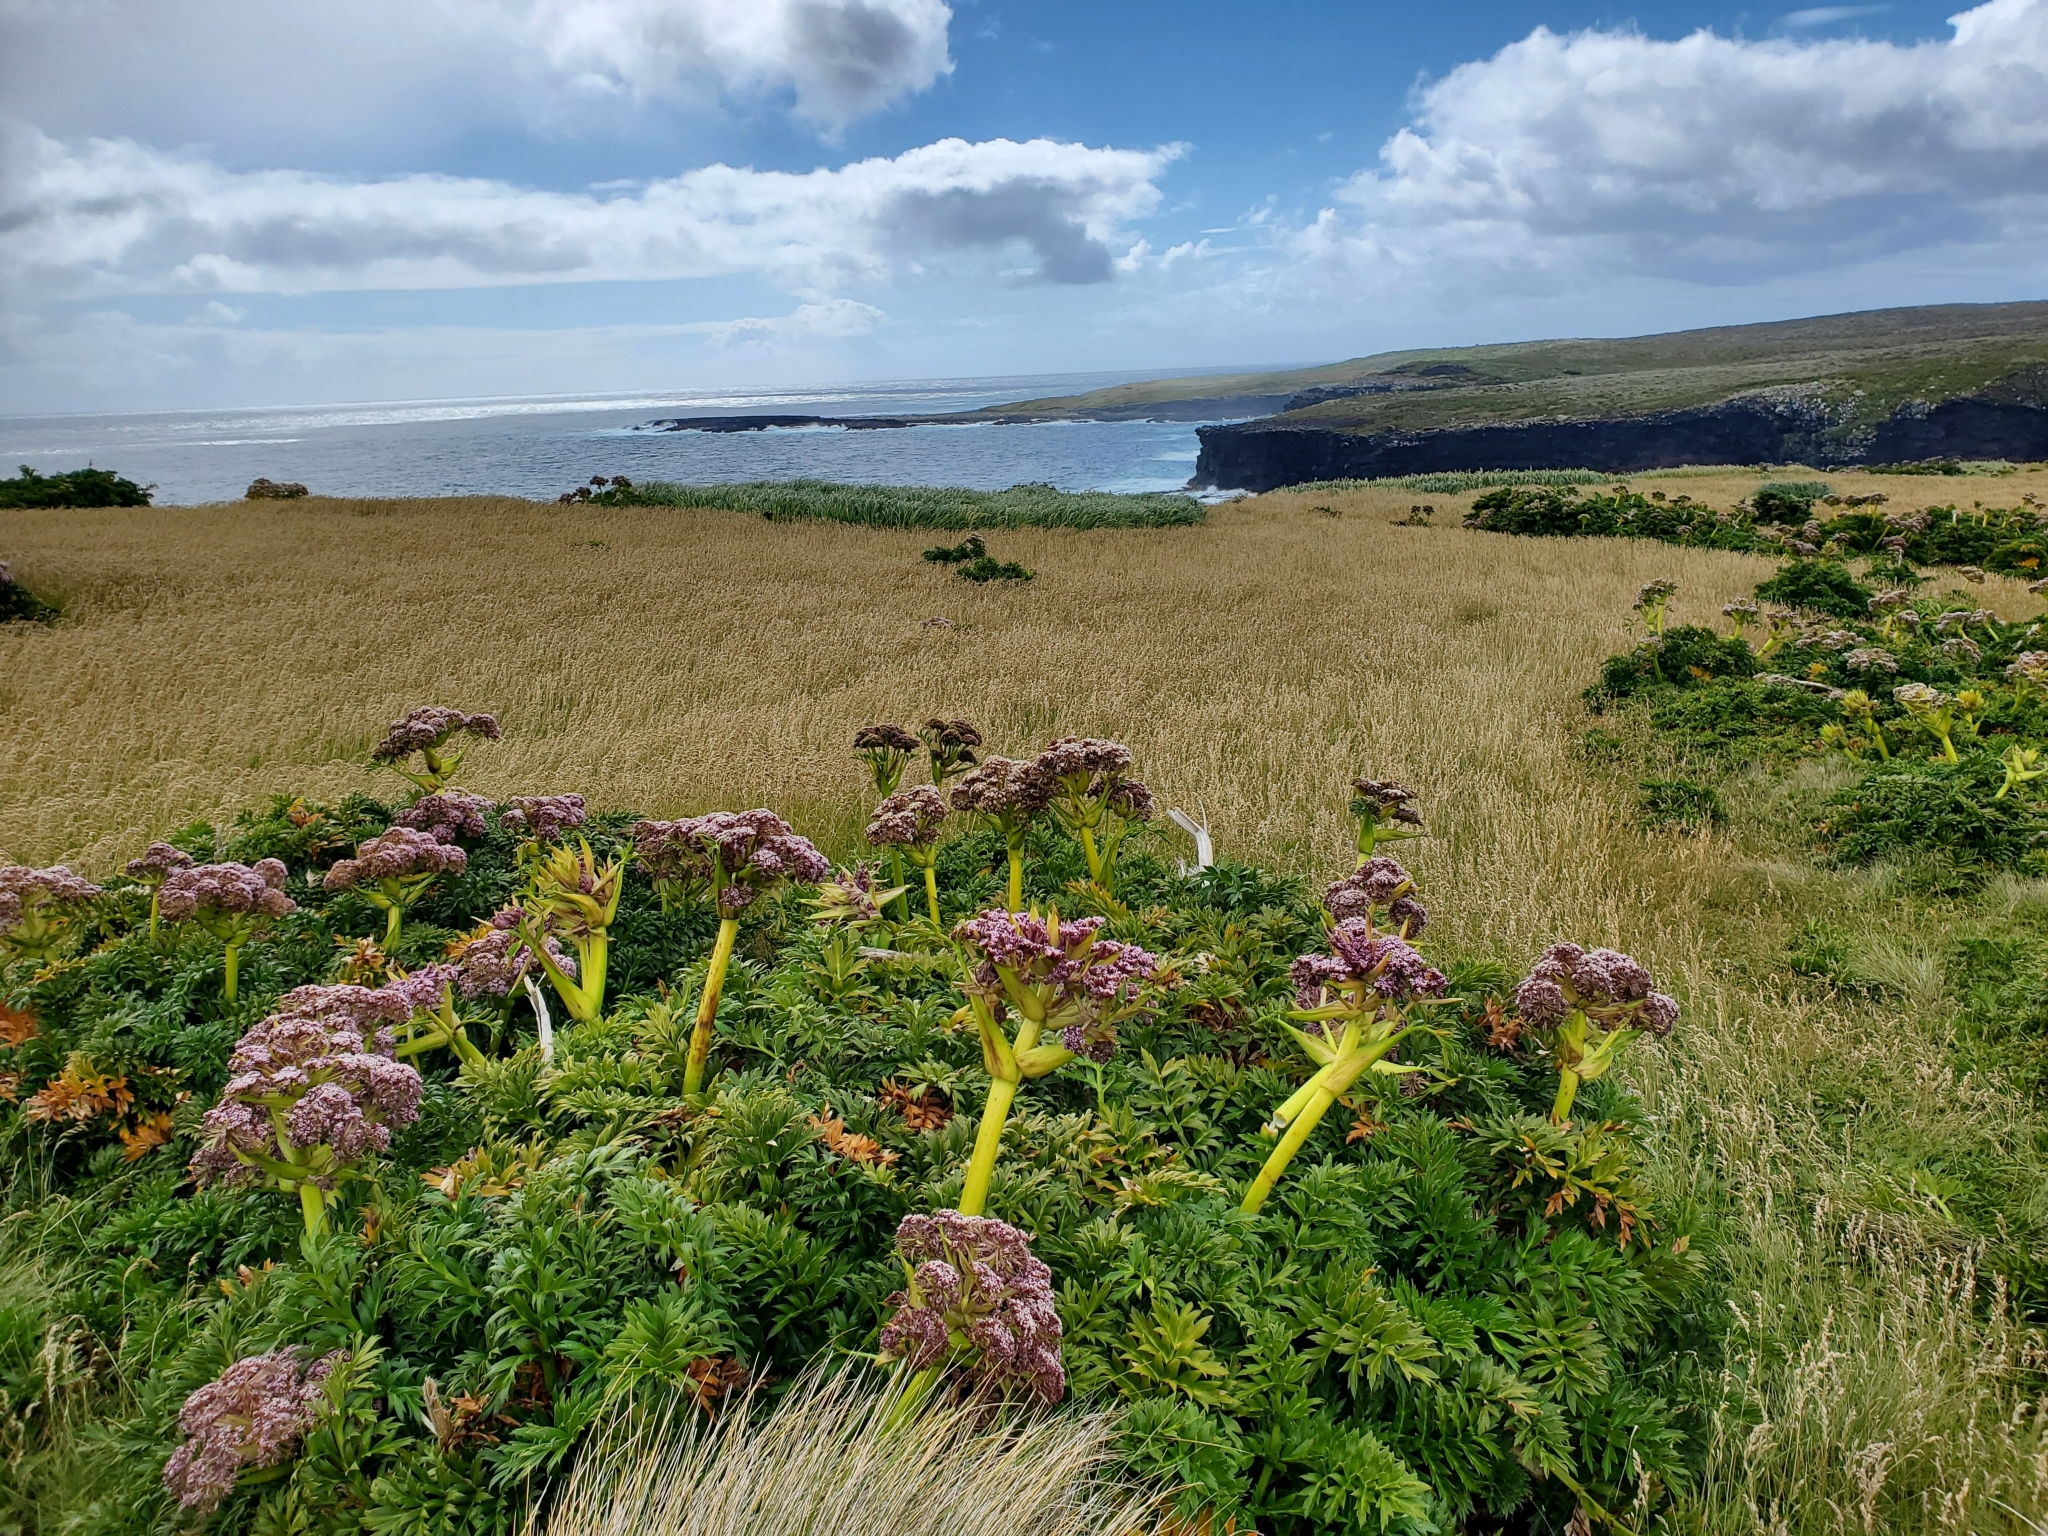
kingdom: Plantae
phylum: Tracheophyta
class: Magnoliopsida
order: Apiales
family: Apiaceae
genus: Anisotome
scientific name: Anisotome latifolia
